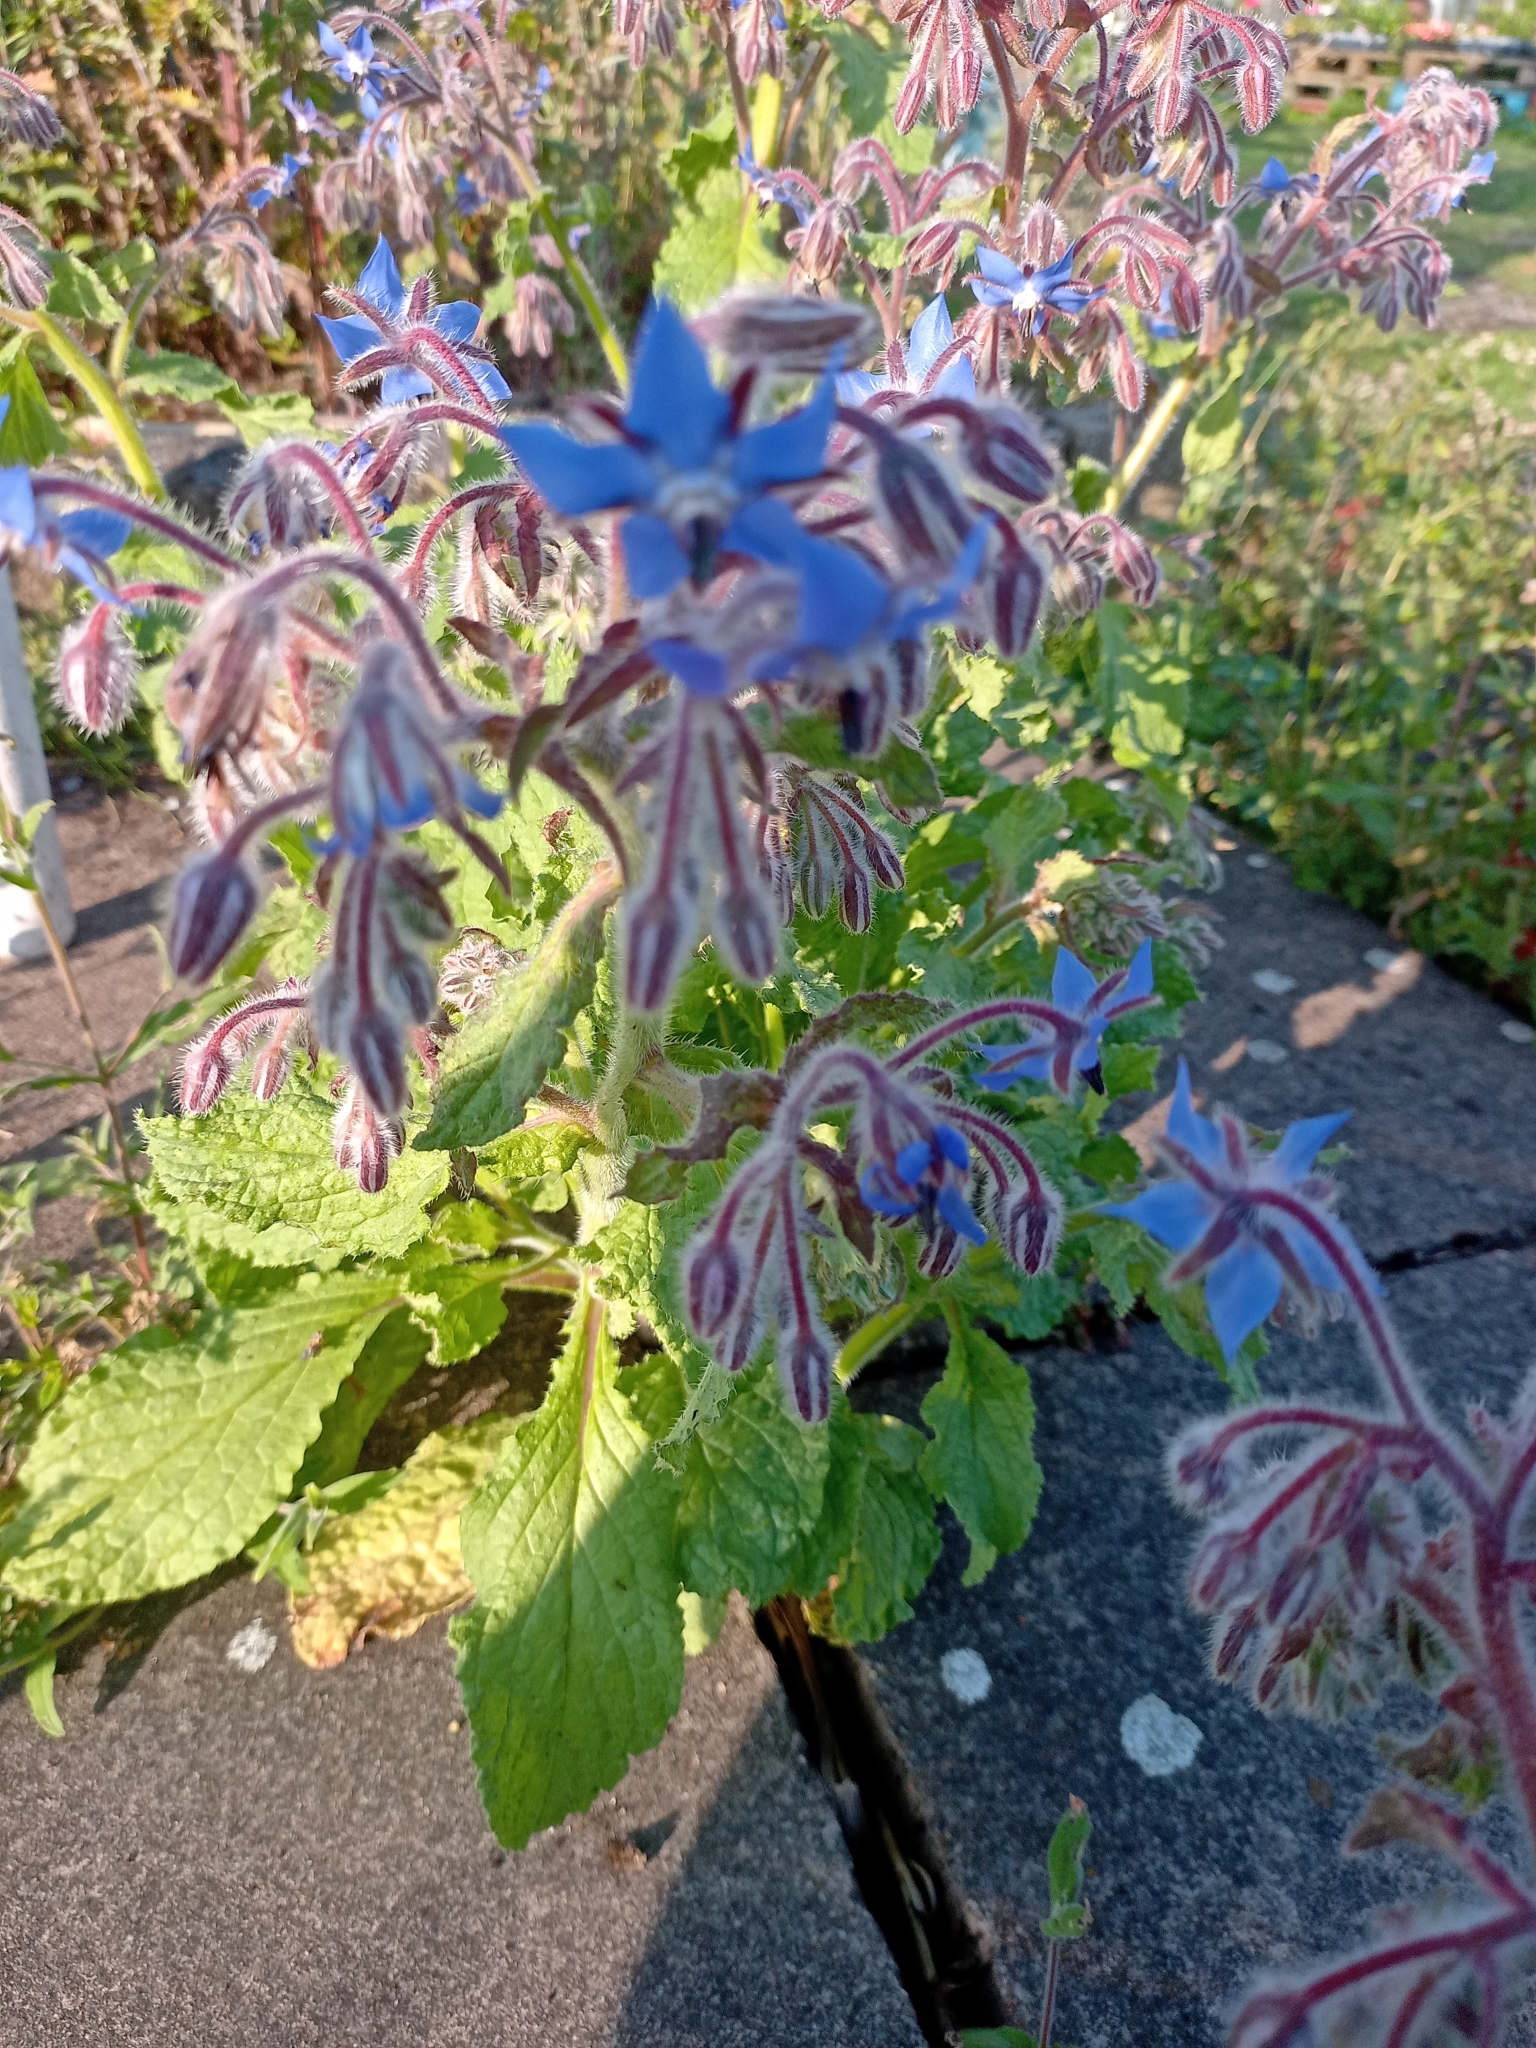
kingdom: Plantae
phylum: Tracheophyta
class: Magnoliopsida
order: Boraginales
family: Boraginaceae
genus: Borago
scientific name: Borago officinalis
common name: Borage
